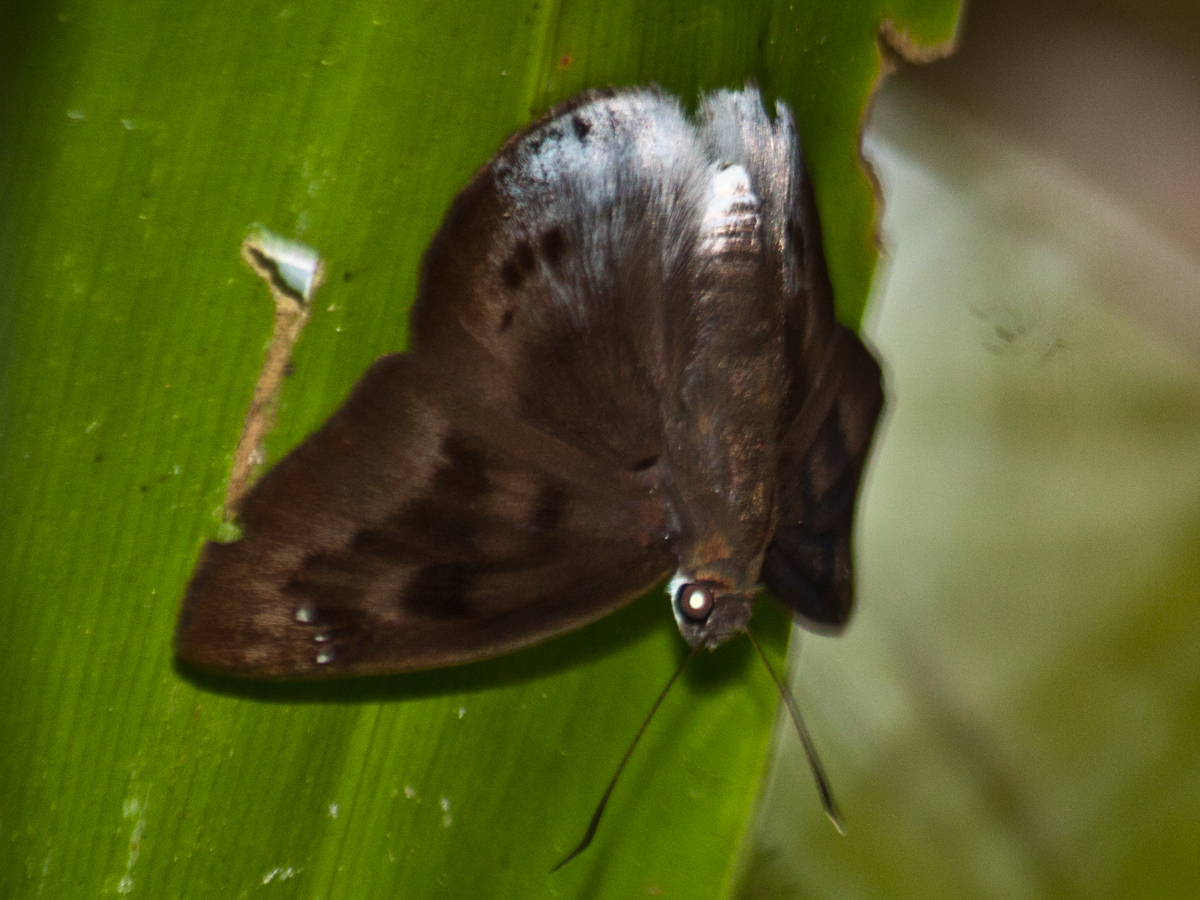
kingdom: Animalia
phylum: Arthropoda
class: Insecta
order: Lepidoptera
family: Hesperiidae
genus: Tagiades
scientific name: Tagiades gana
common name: Suffused snow flat
